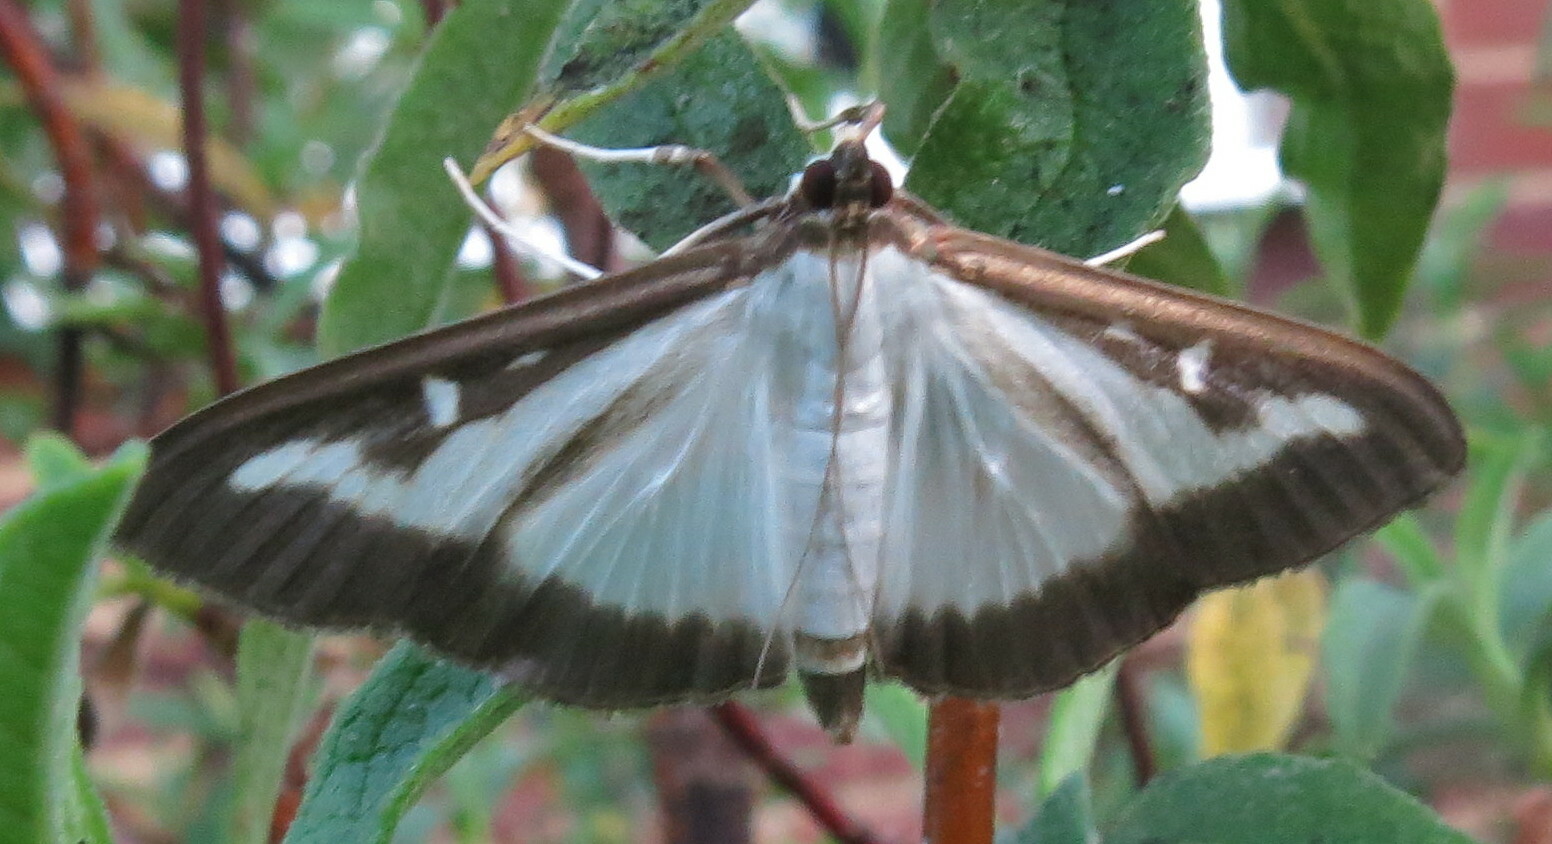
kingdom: Animalia
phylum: Arthropoda
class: Insecta
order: Lepidoptera
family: Crambidae
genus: Cydalima
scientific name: Cydalima perspectalis
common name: Box tree moth
